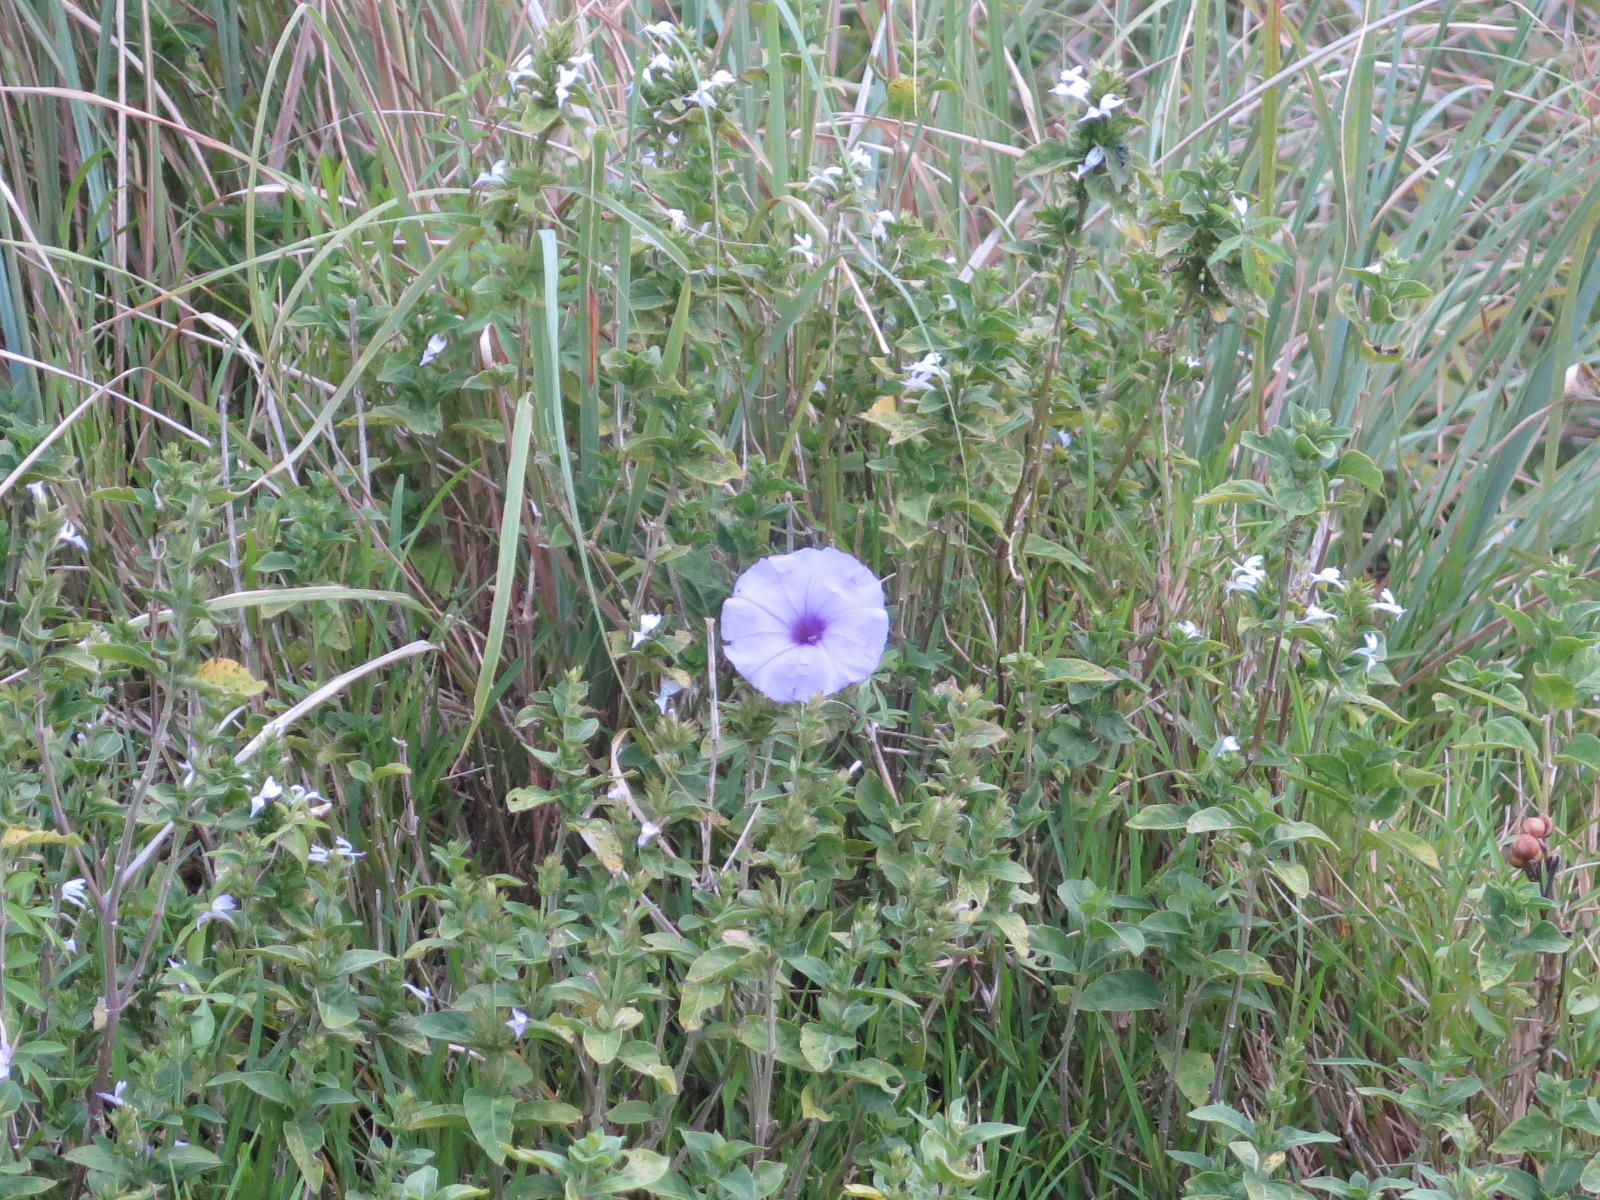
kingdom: Plantae
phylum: Tracheophyta
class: Magnoliopsida
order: Solanales
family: Convolvulaceae
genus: Ipomoea
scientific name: Ipomoea cairica
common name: Mile a minute vine
